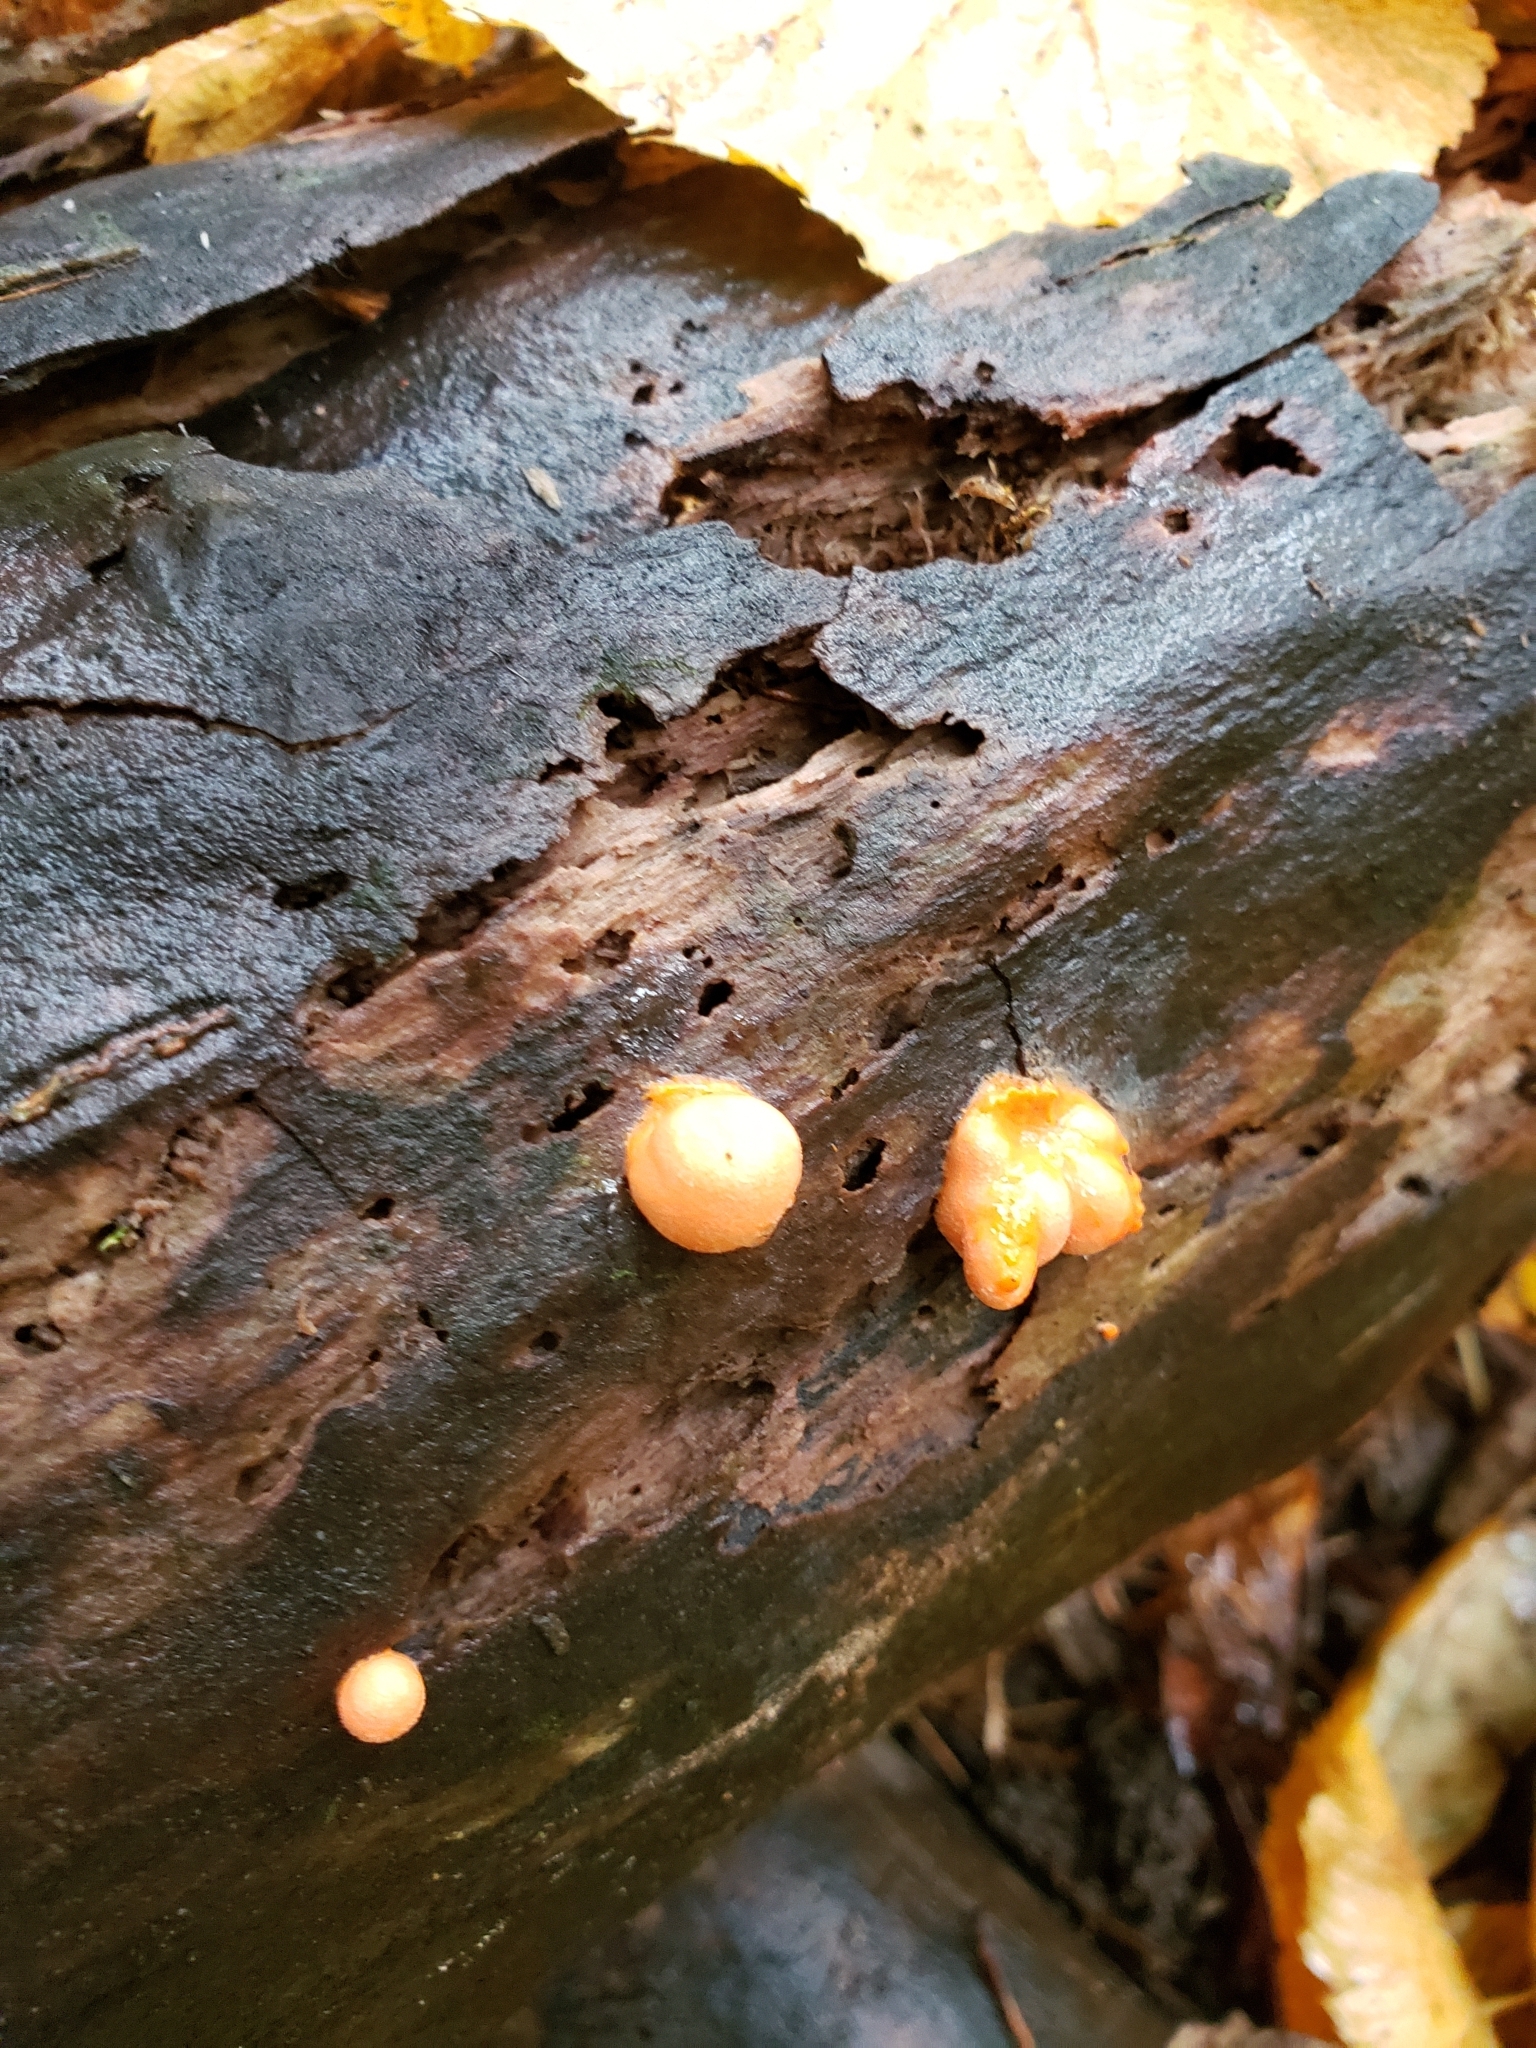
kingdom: Protozoa
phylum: Mycetozoa
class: Myxomycetes
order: Cribrariales
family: Tubiferaceae
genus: Lycogala
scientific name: Lycogala epidendrum
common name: Wolf's milk
